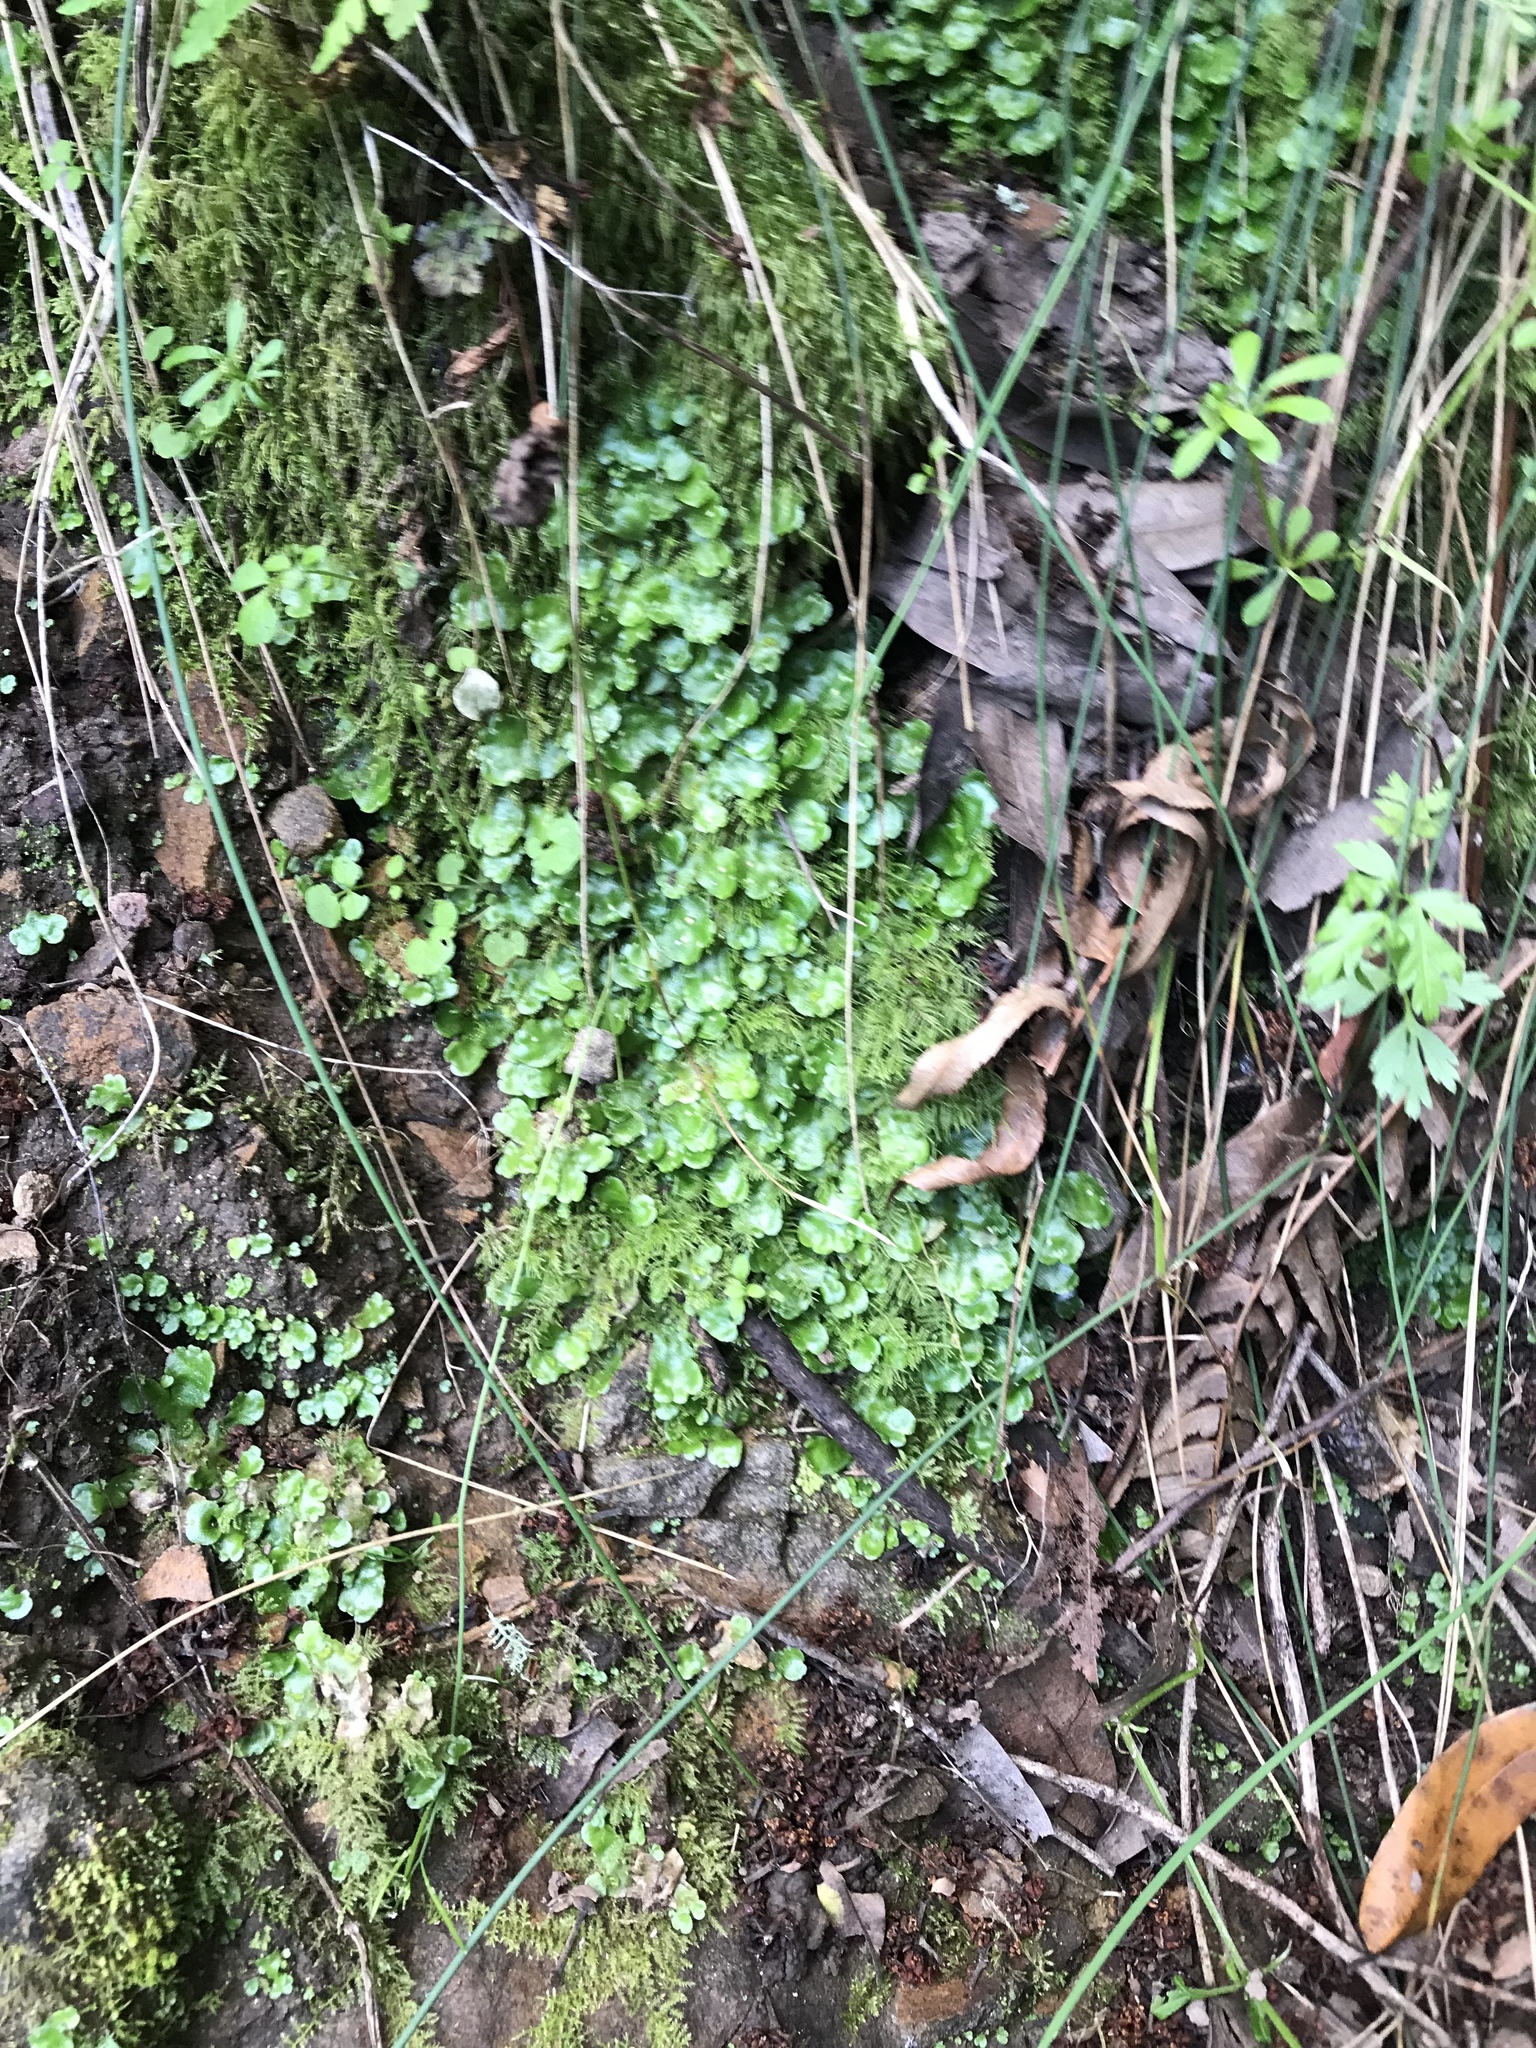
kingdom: Plantae
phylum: Marchantiophyta
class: Marchantiopsida
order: Lunulariales
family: Lunulariaceae
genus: Lunularia
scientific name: Lunularia cruciata
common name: Crescent-cup liverwort
